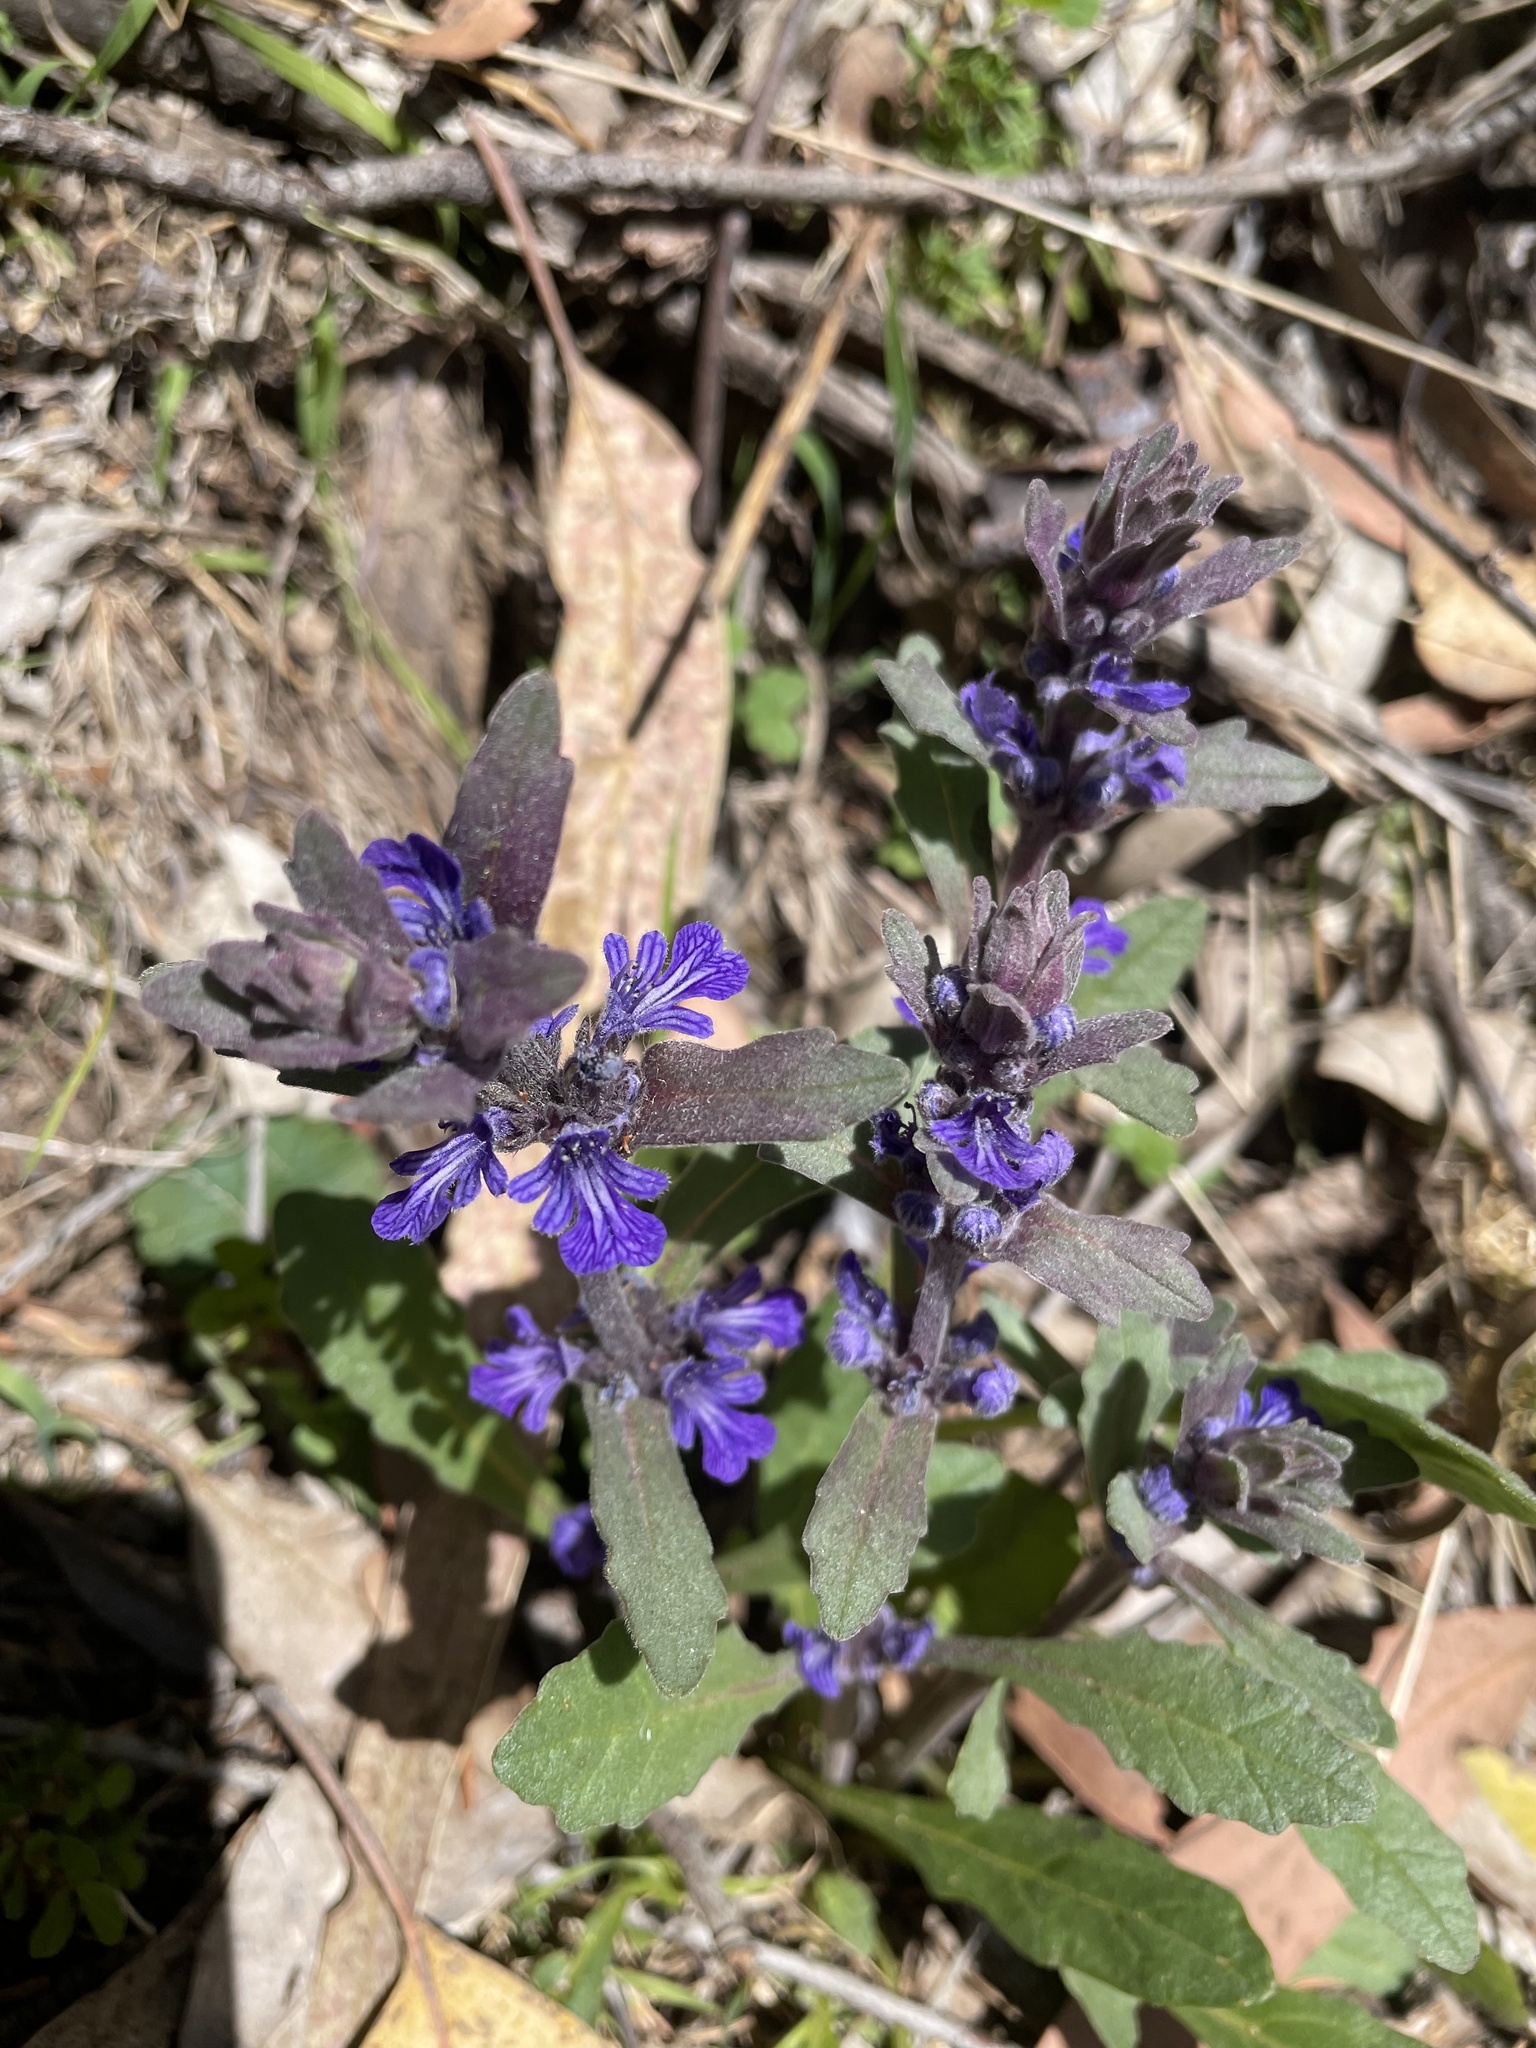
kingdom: Plantae
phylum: Tracheophyta
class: Magnoliopsida
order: Lamiales
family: Lamiaceae
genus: Ajuga
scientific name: Ajuga australis
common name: Australian bugle
